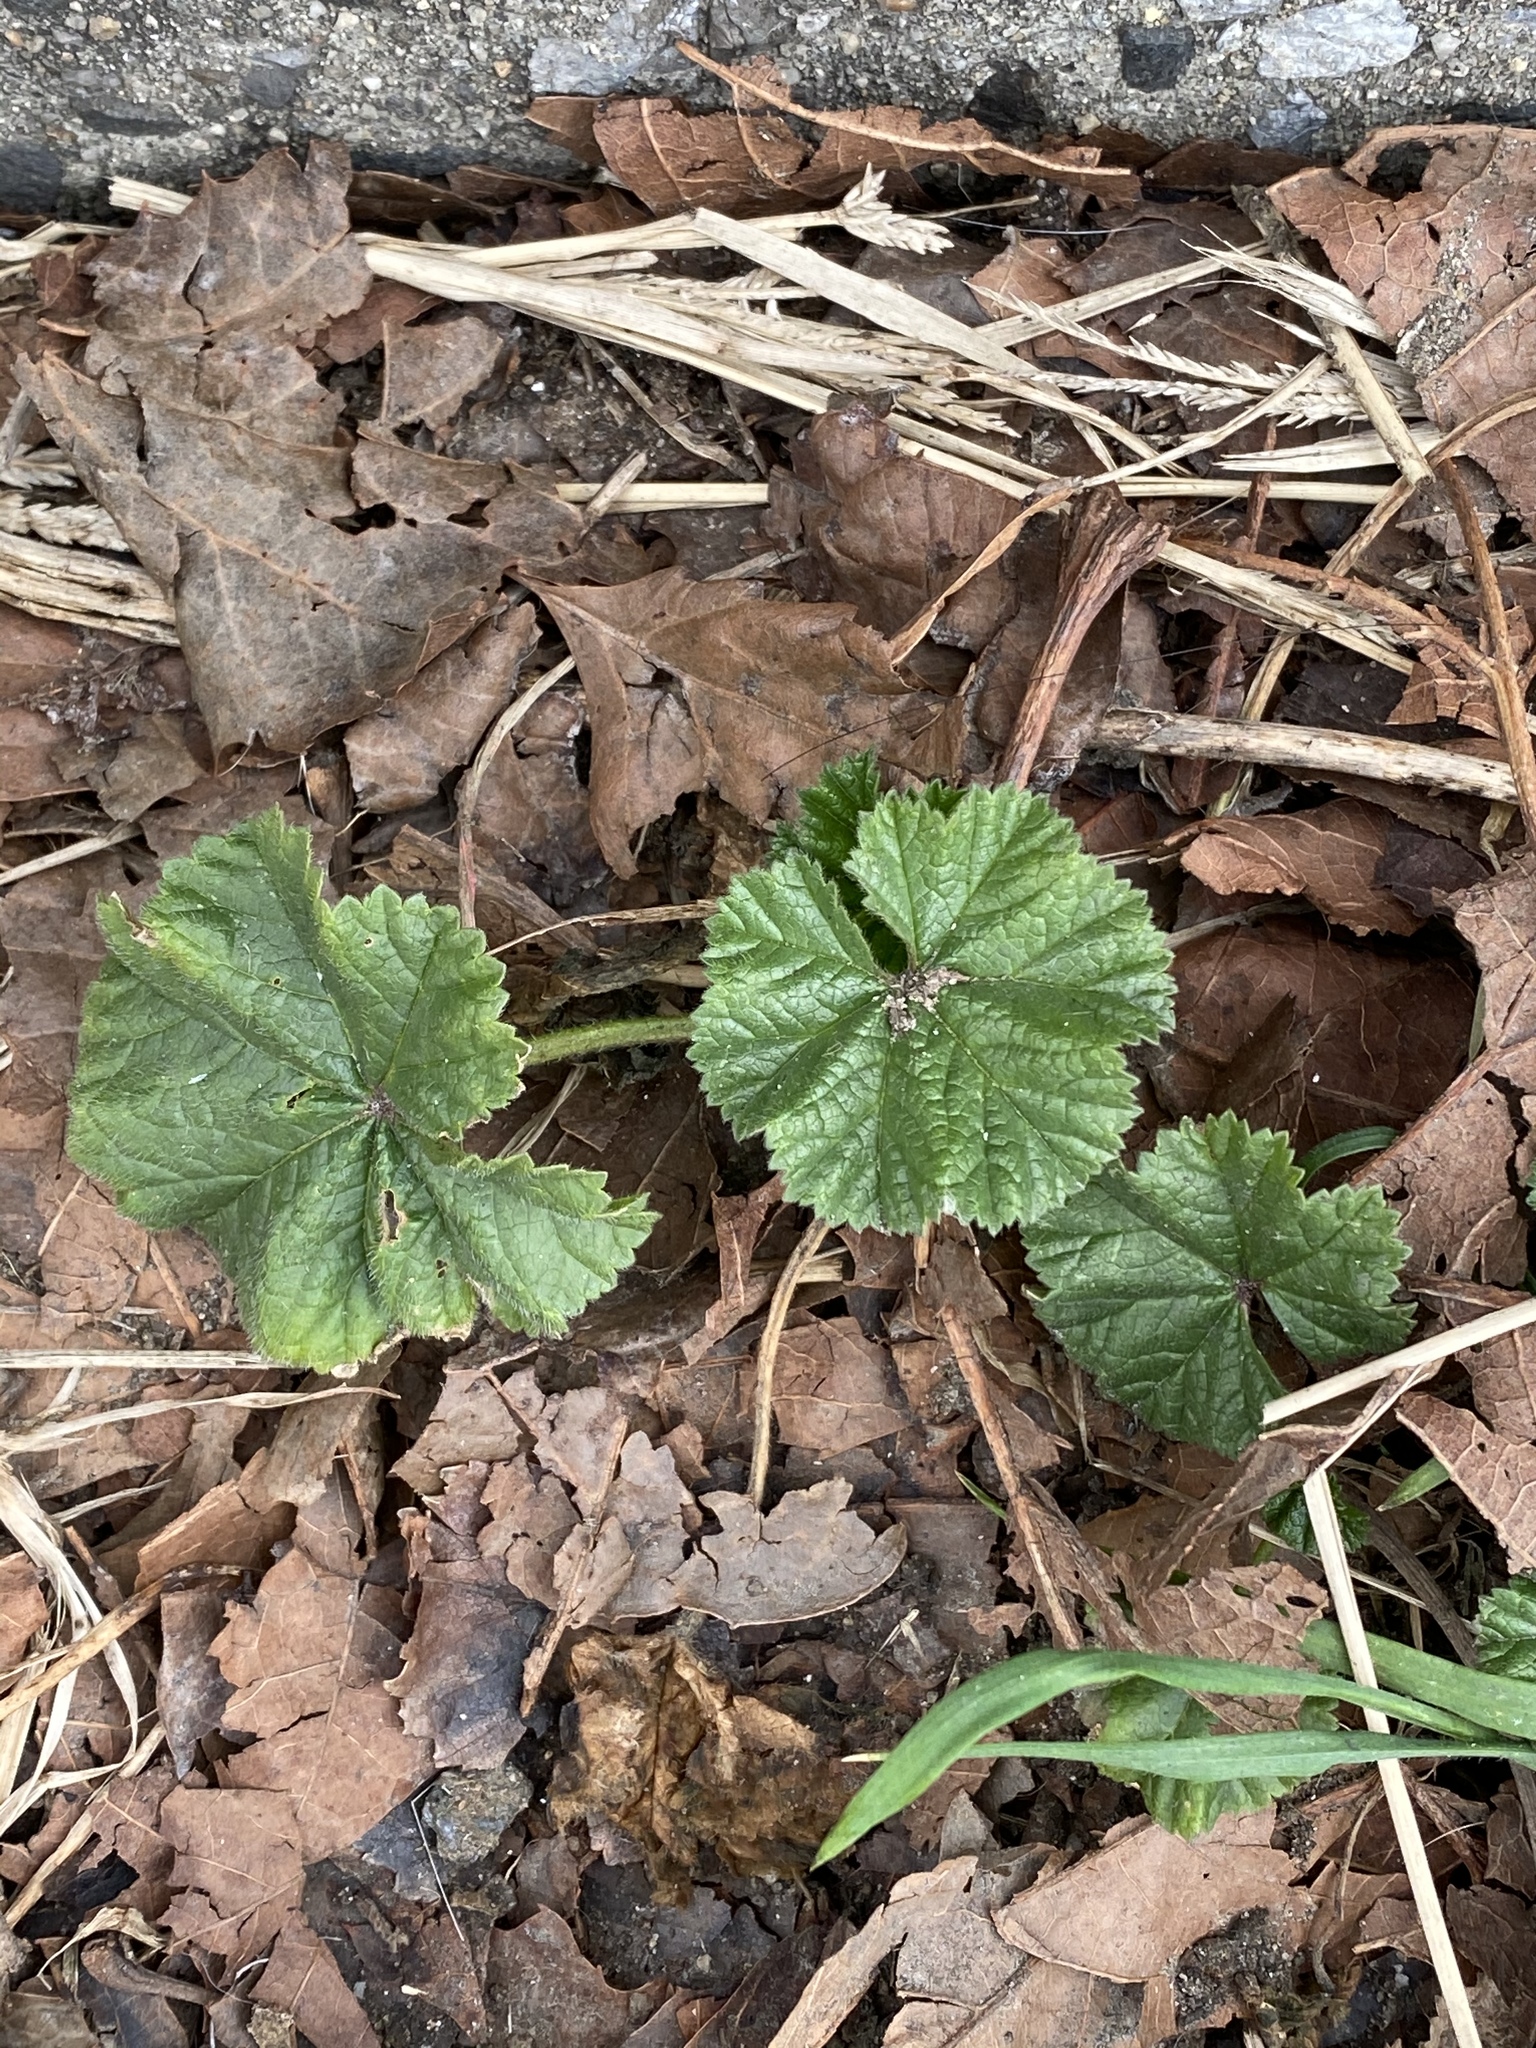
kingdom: Plantae
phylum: Tracheophyta
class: Magnoliopsida
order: Malvales
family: Malvaceae
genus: Malva
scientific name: Malva neglecta
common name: Common mallow
